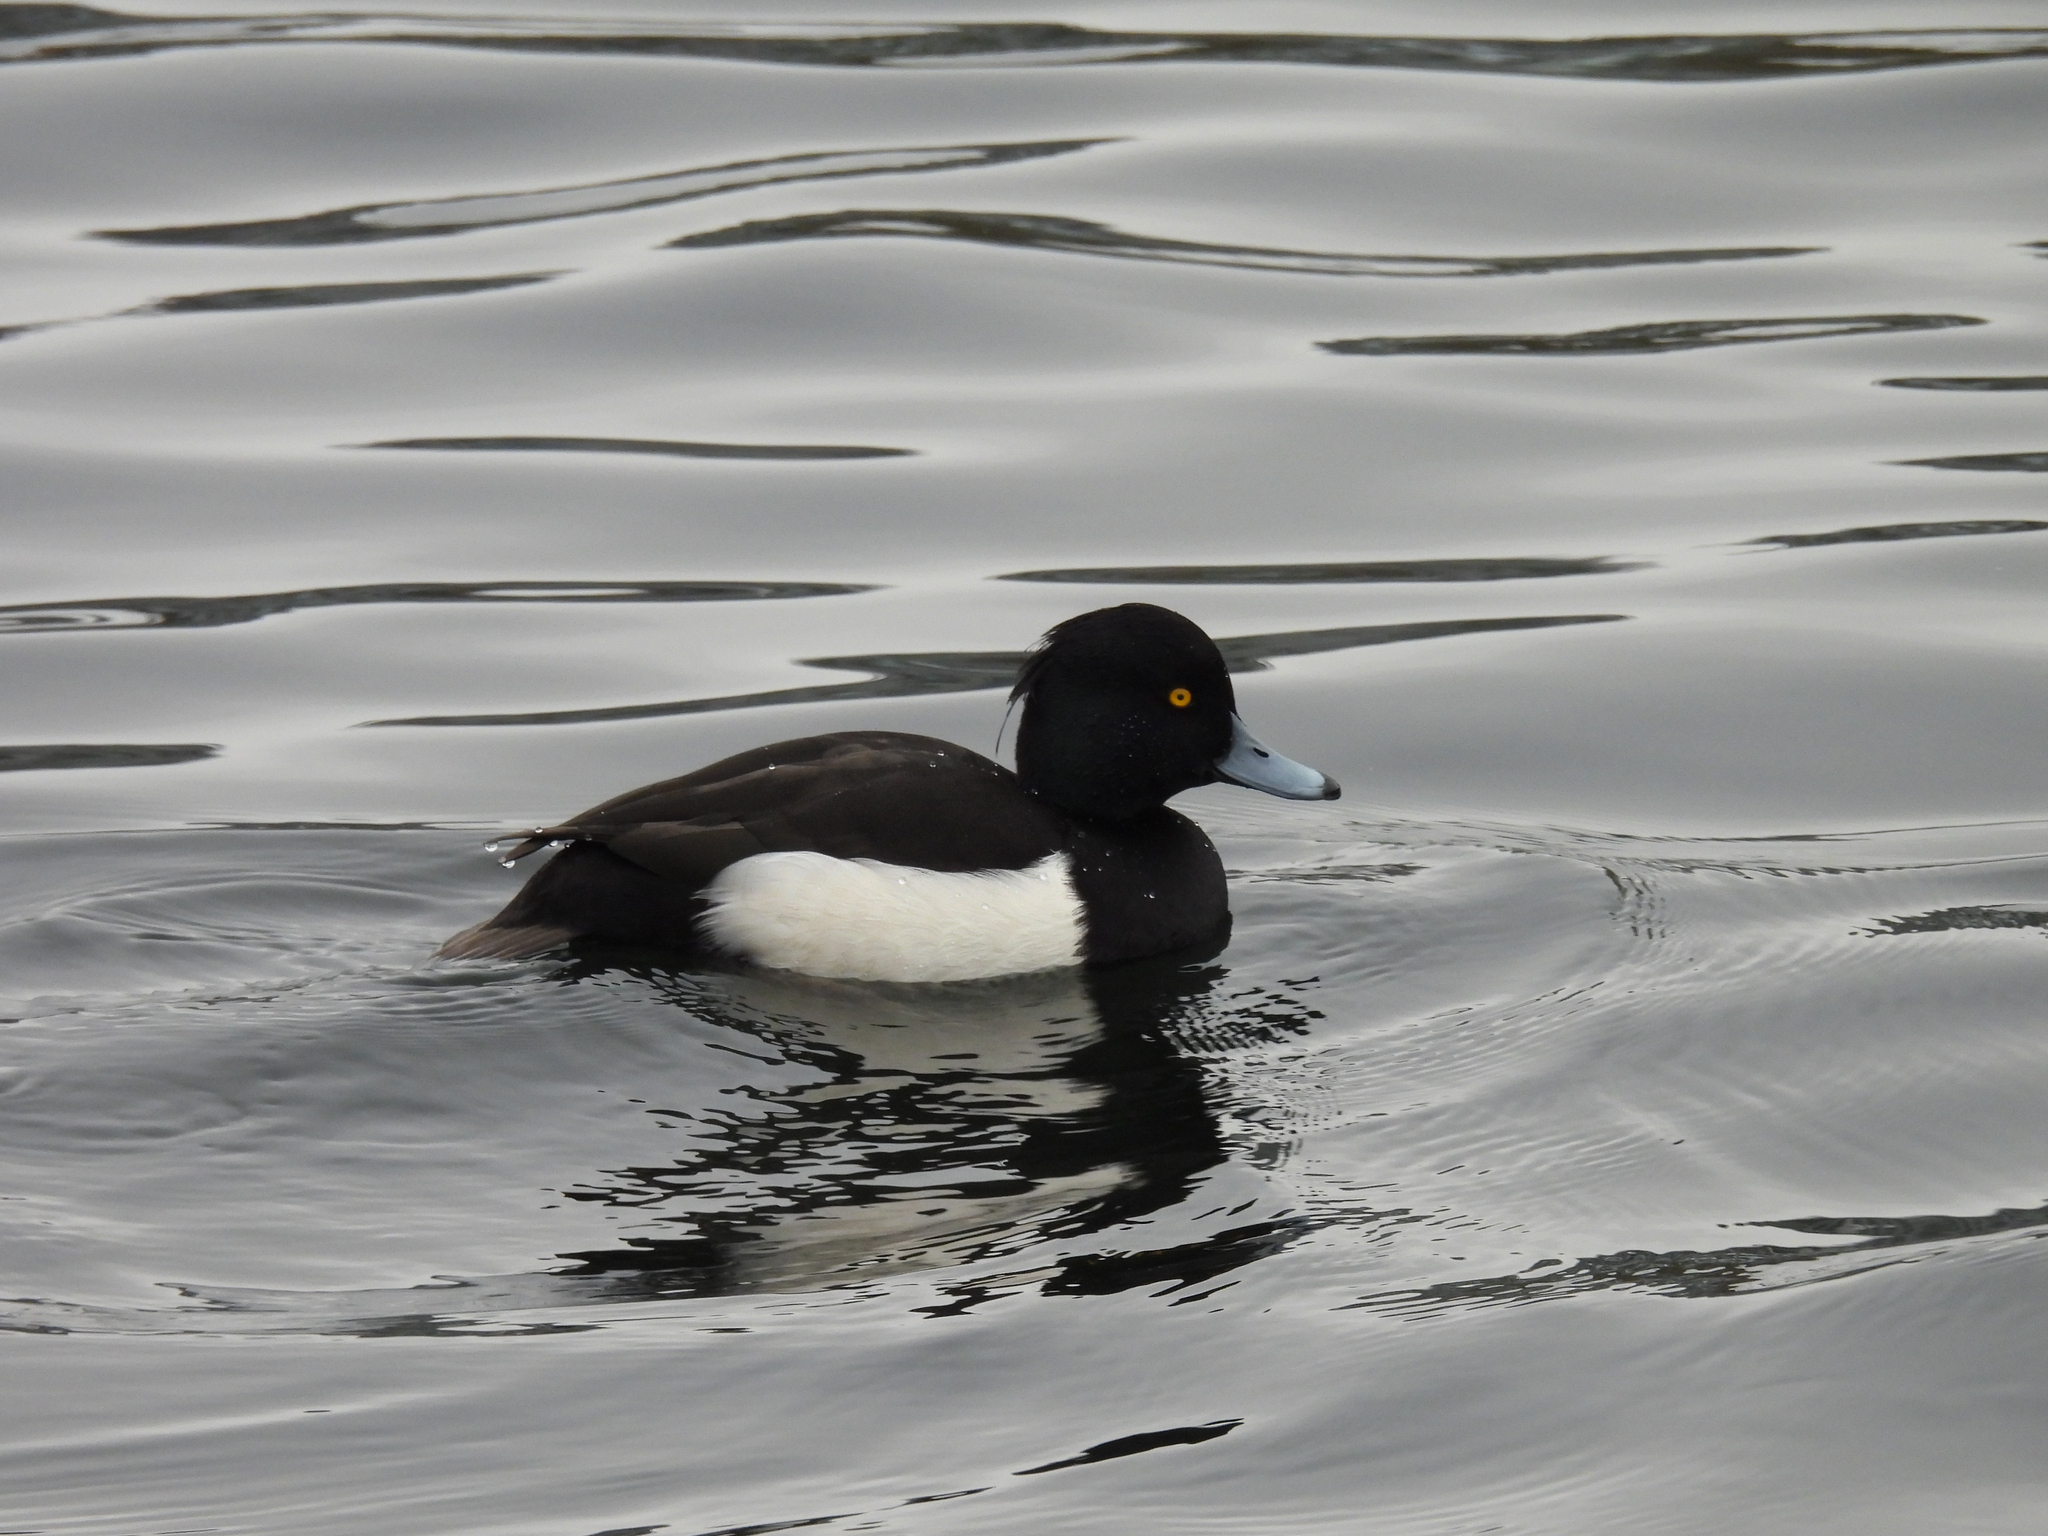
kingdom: Animalia
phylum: Chordata
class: Aves
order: Anseriformes
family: Anatidae
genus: Aythya
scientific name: Aythya fuligula
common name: Tufted duck
